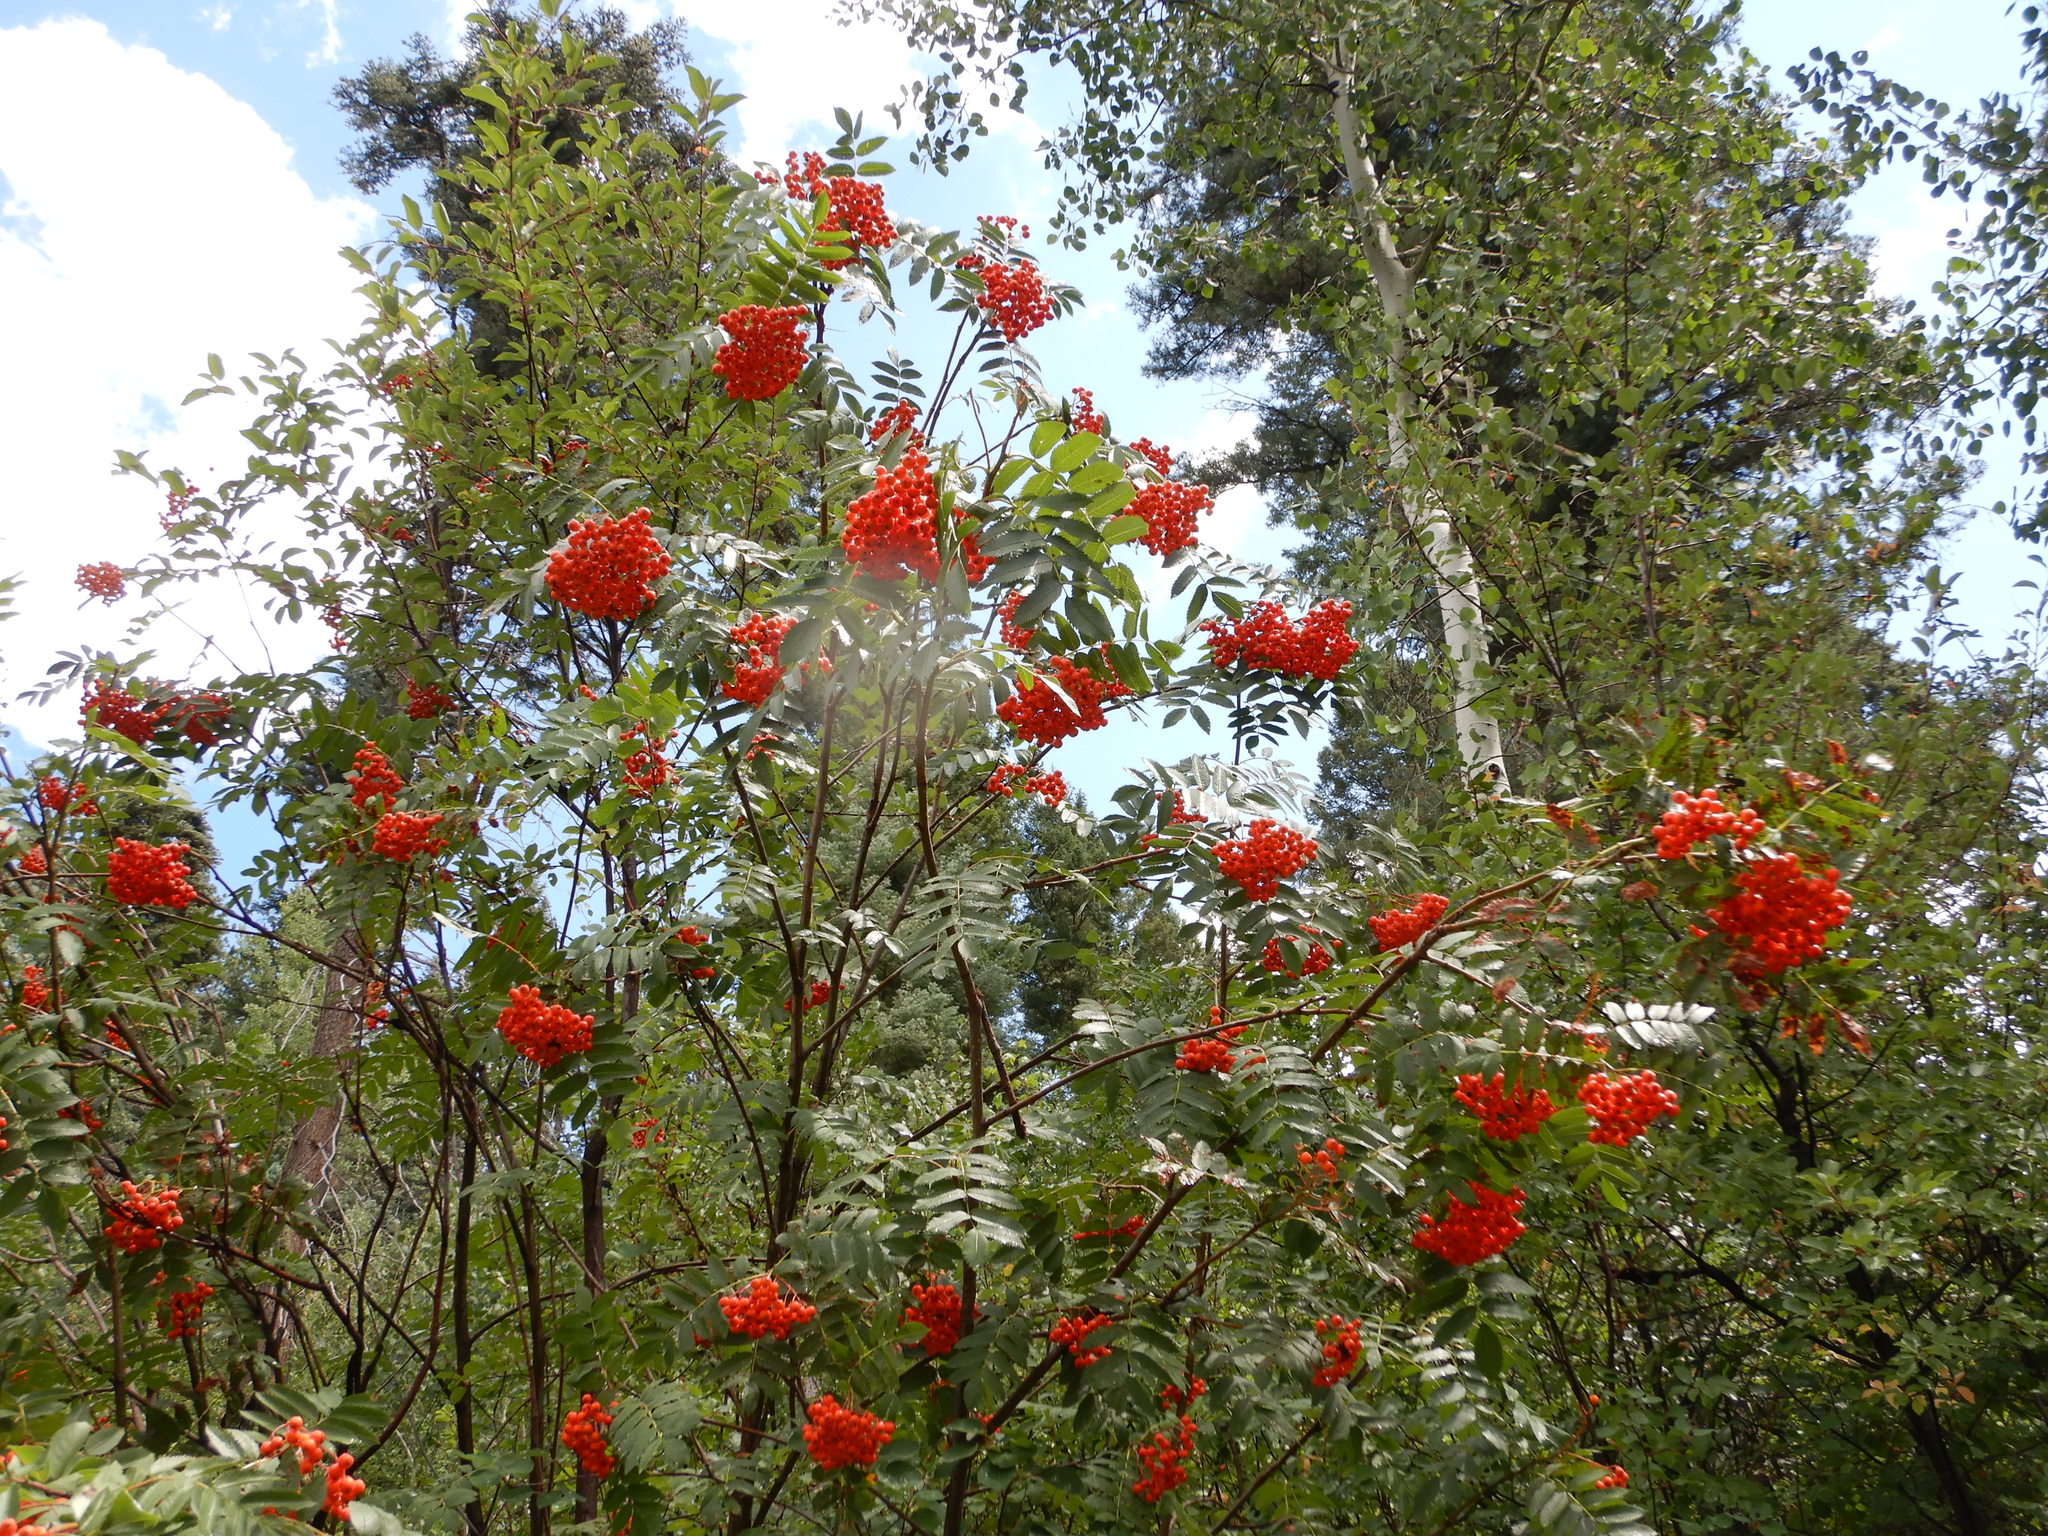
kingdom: Plantae
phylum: Tracheophyta
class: Magnoliopsida
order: Rosales
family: Rosaceae
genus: Sorbus
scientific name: Sorbus aucuparia
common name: Rowan
